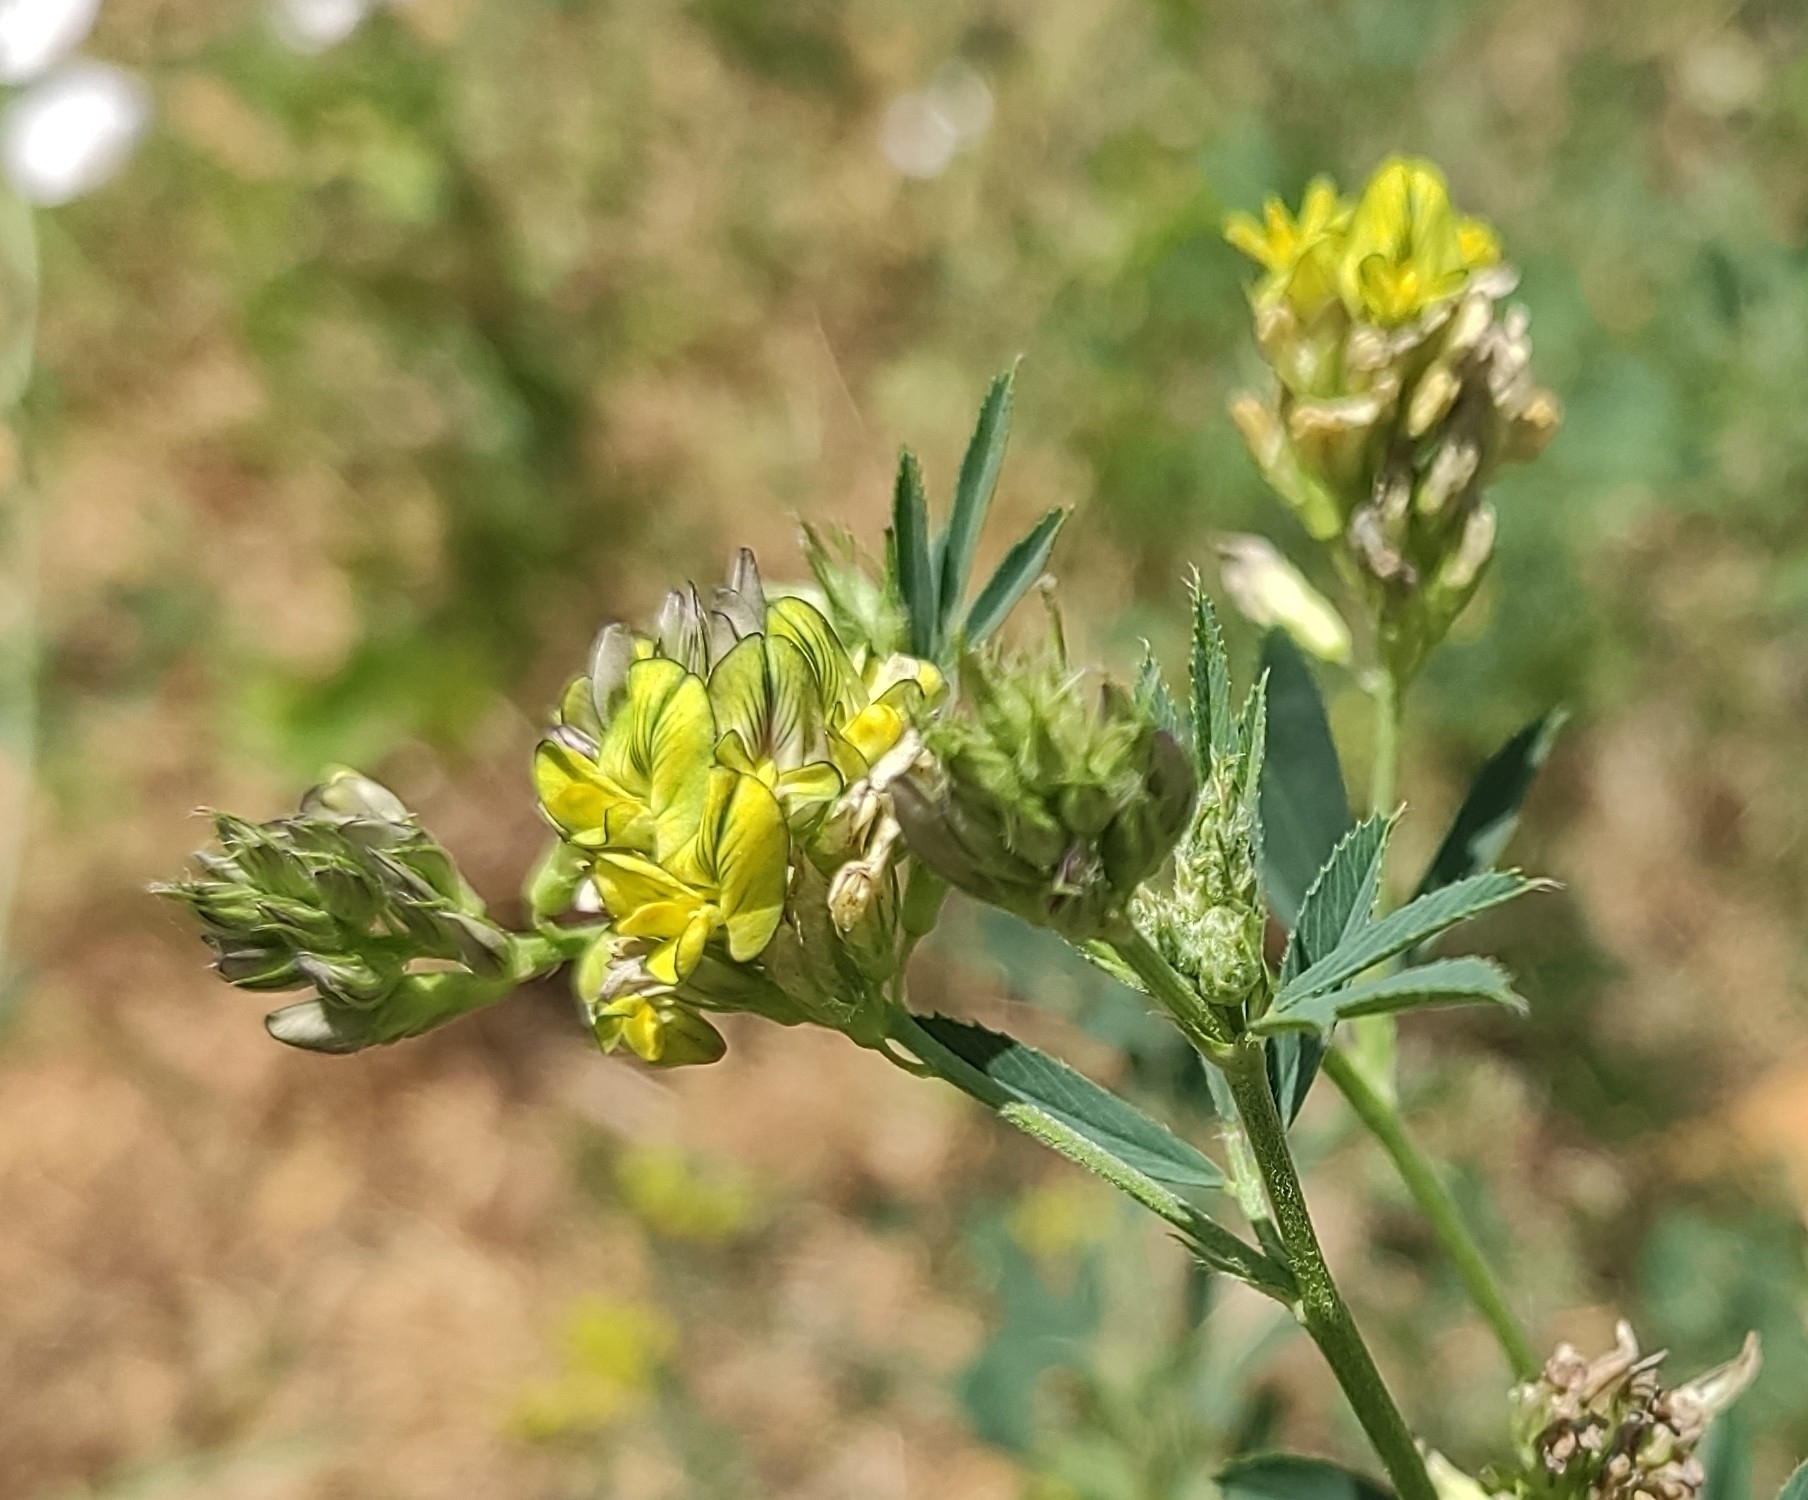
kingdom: Plantae
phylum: Tracheophyta
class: Magnoliopsida
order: Fabales
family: Fabaceae
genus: Medicago
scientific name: Medicago varia
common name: Sand lucerne
